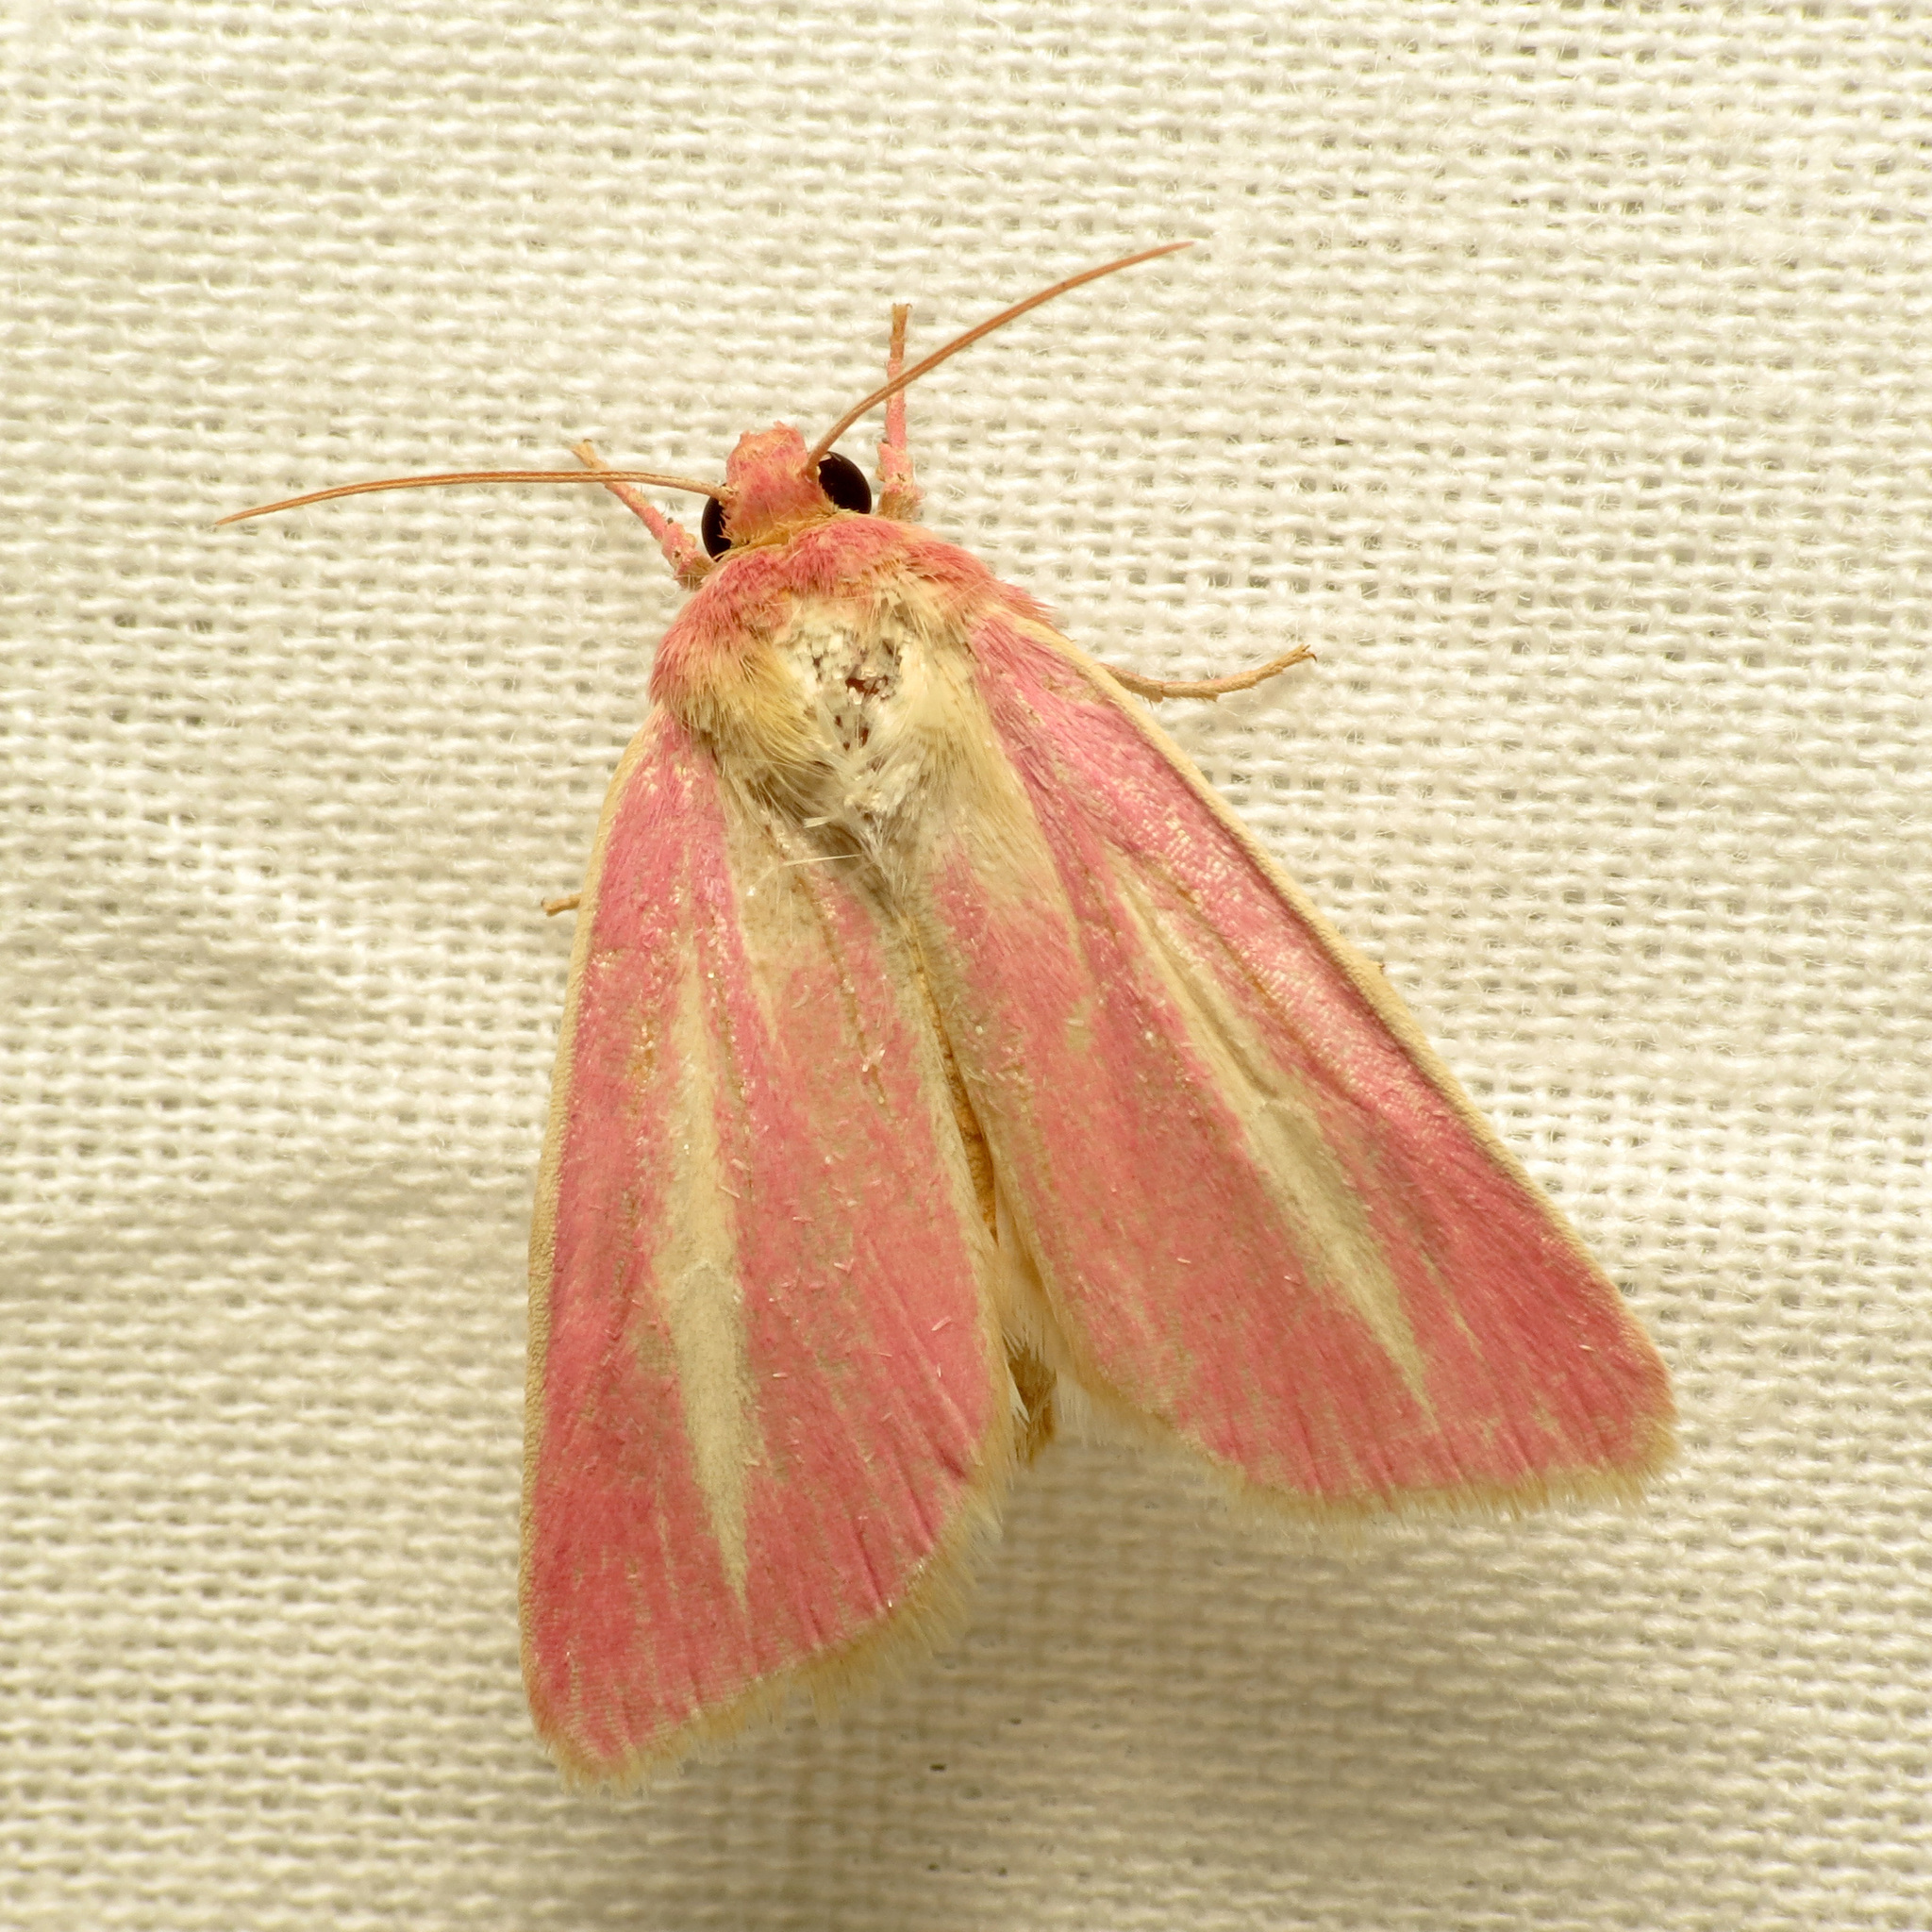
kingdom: Animalia
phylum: Arthropoda
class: Insecta
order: Lepidoptera
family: Noctuidae
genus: Heliocheilus
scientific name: Heliocheilus julia
